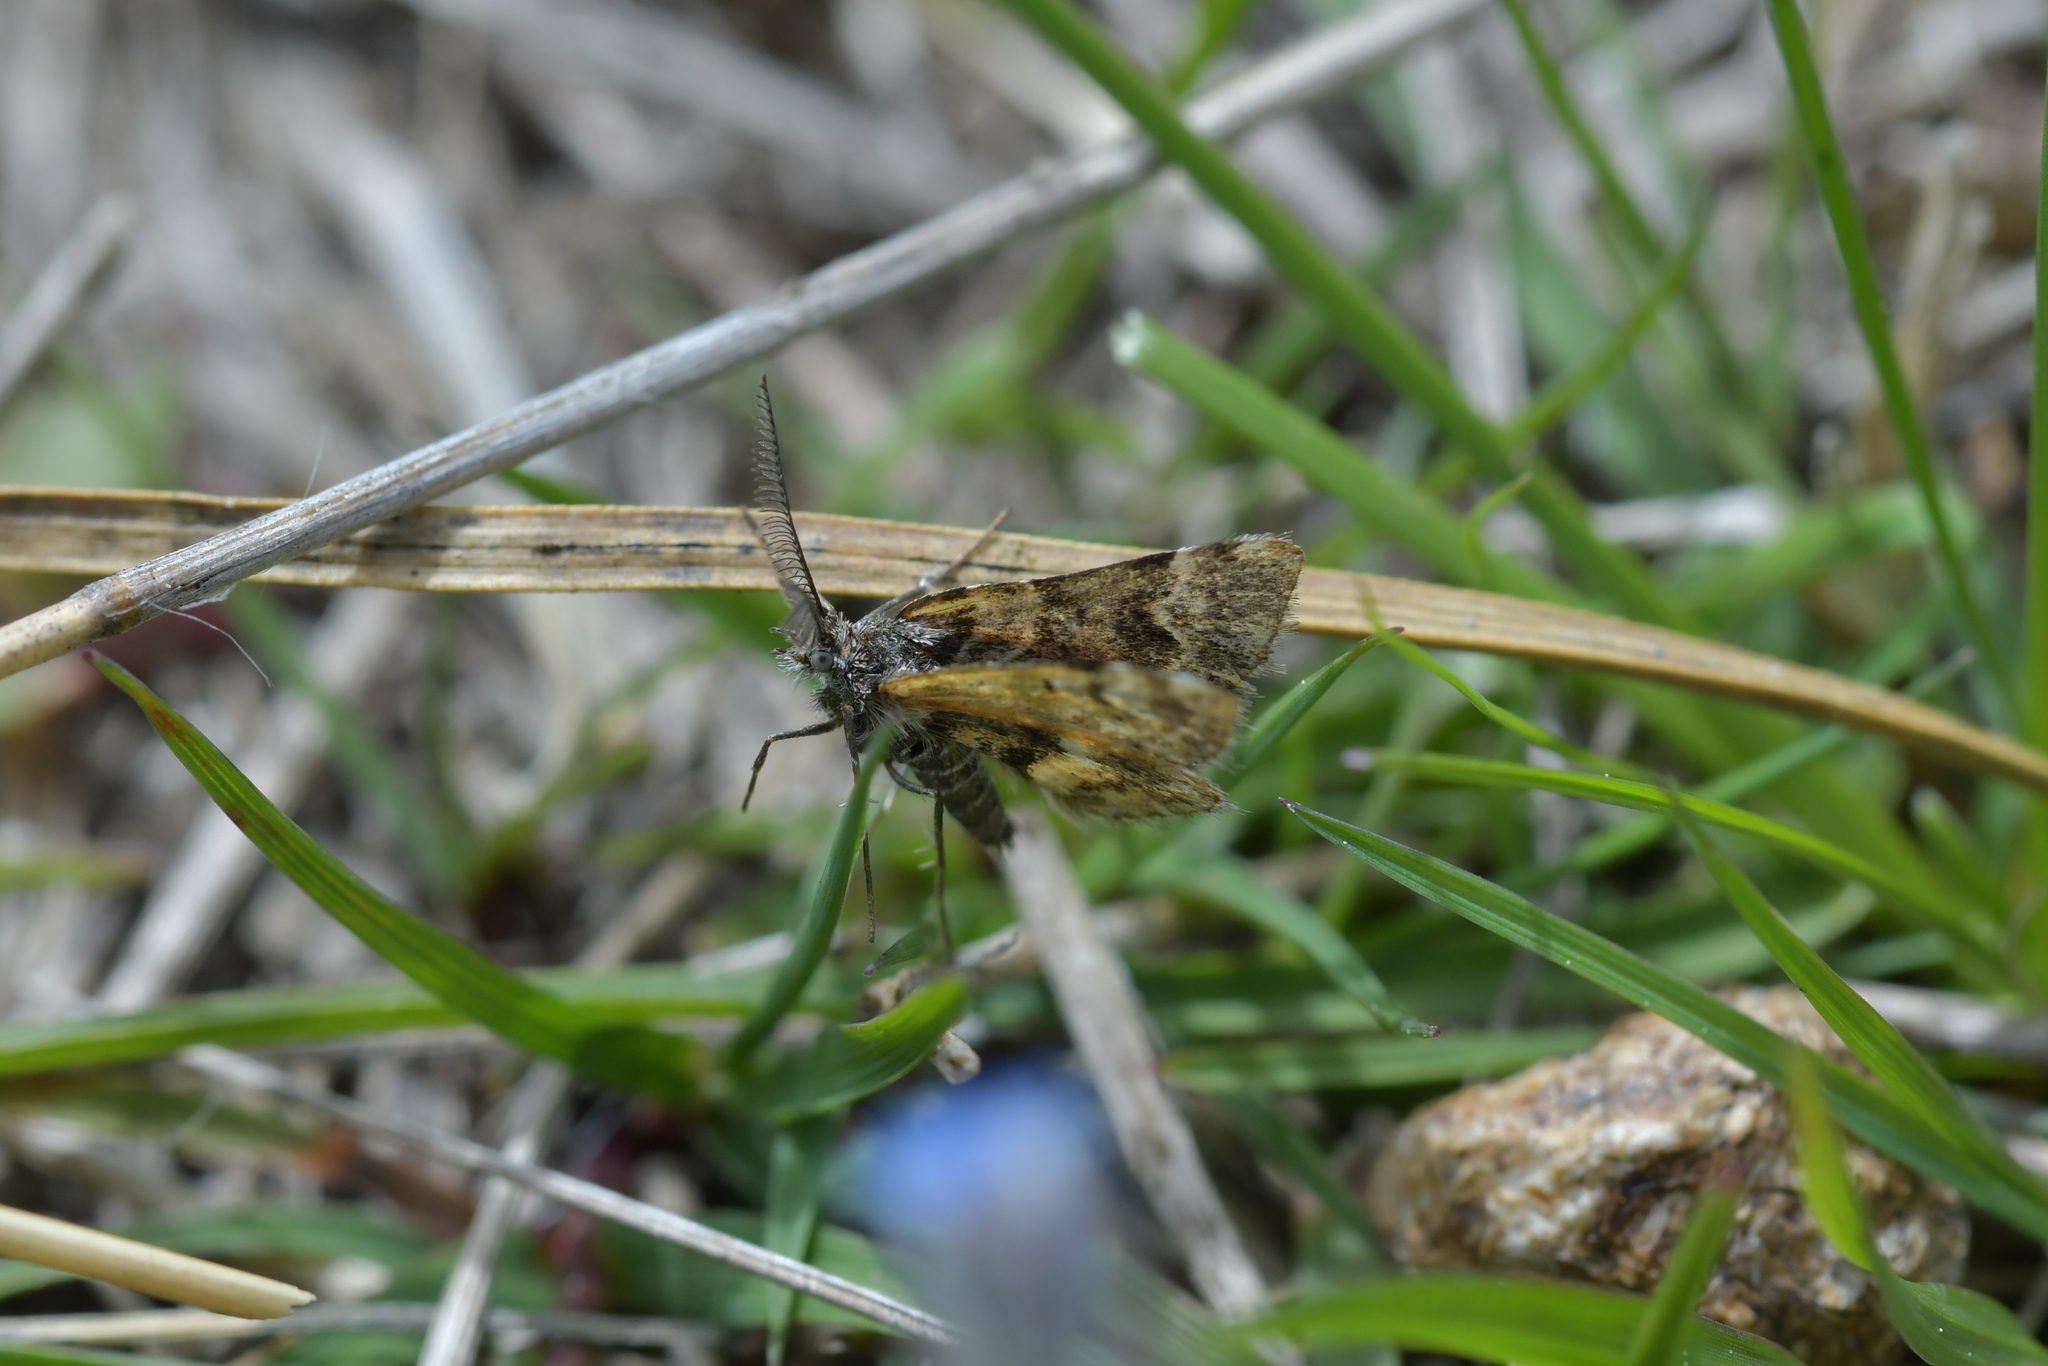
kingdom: Animalia
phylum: Arthropoda
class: Insecta
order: Lepidoptera
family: Geometridae
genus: Arctesthes
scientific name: Arctesthes catapyrrha
